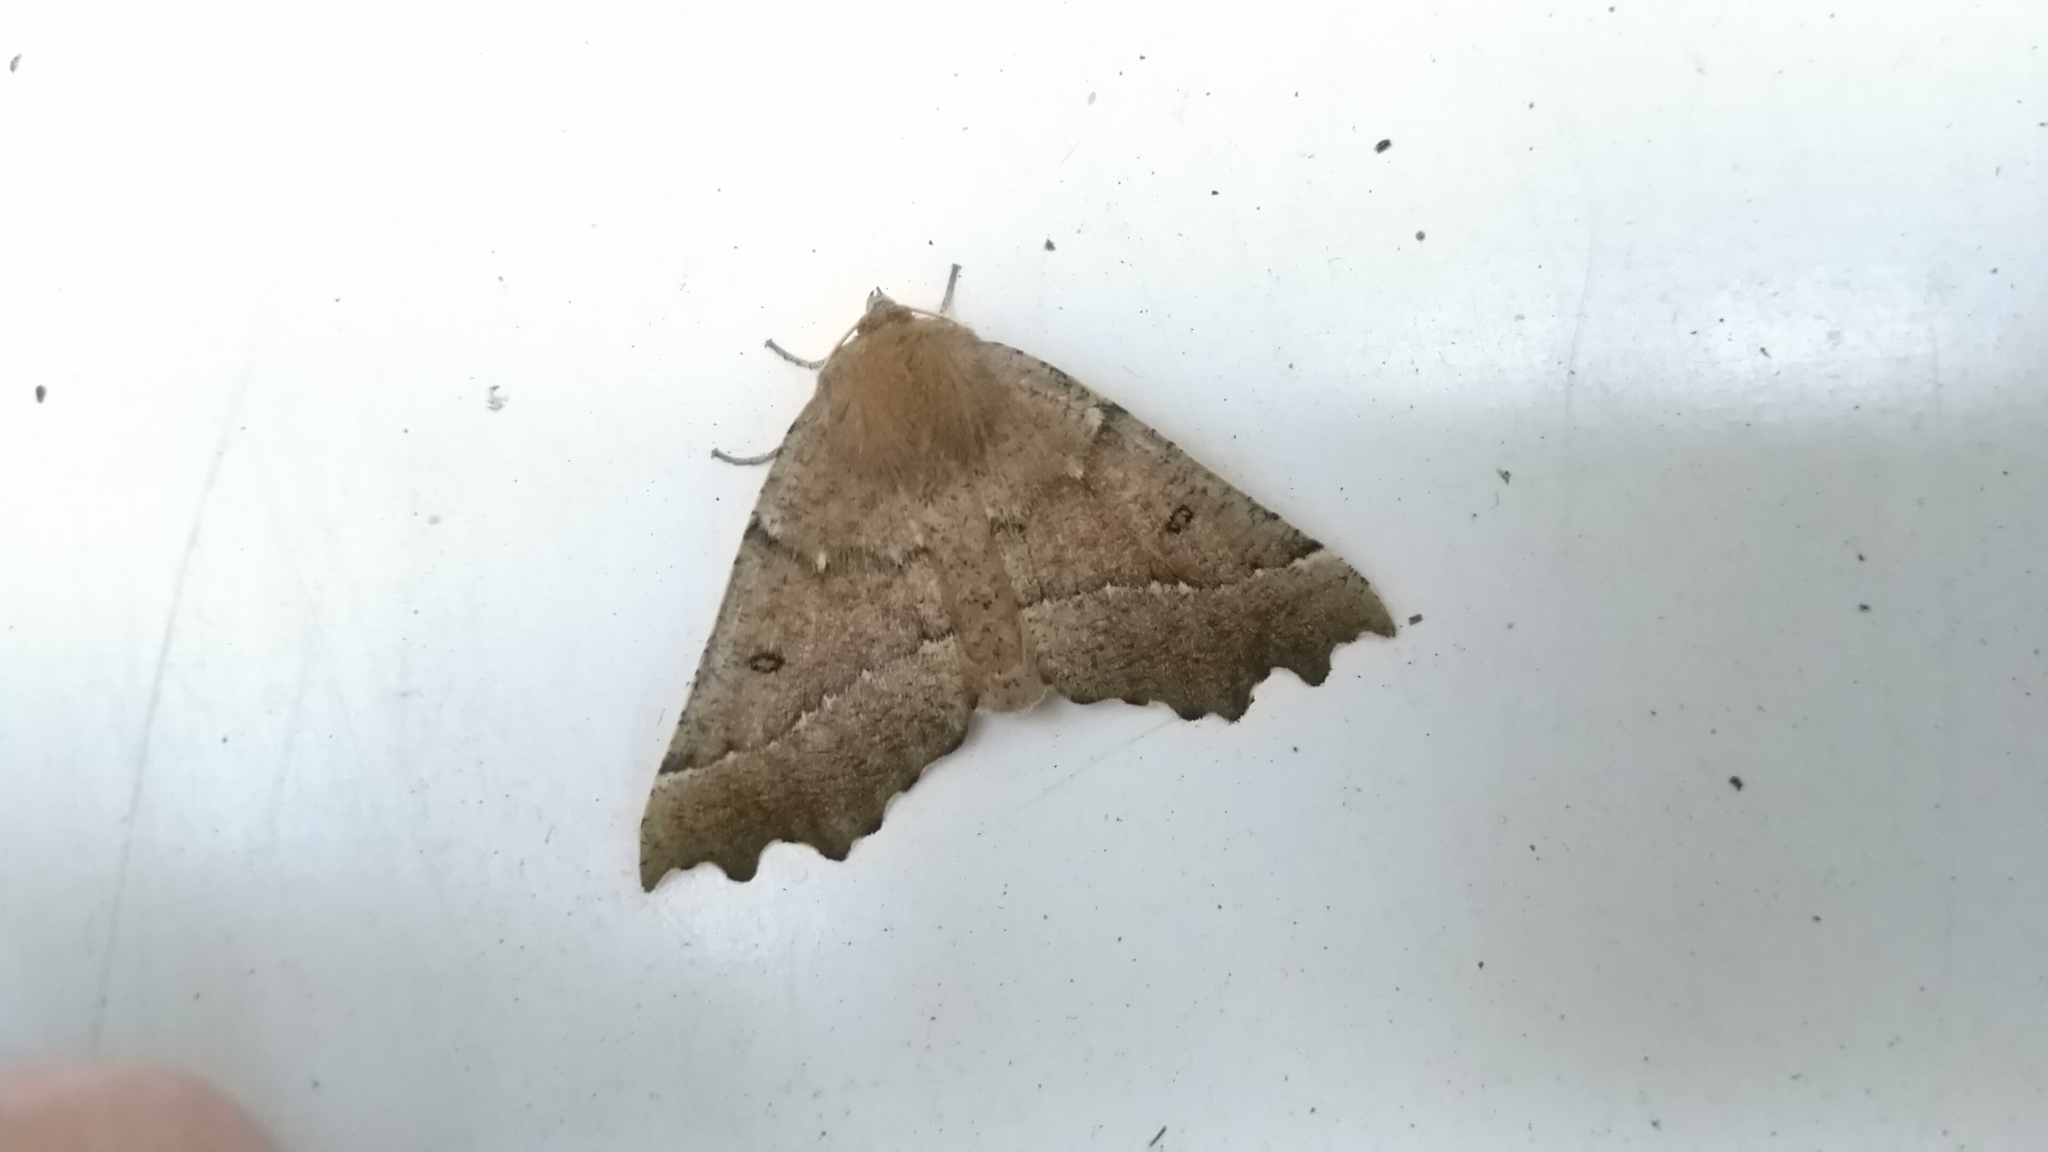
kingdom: Animalia
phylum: Arthropoda
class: Insecta
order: Lepidoptera
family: Geometridae
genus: Odontopera
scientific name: Odontopera bidentata
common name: Scalloped hazel
